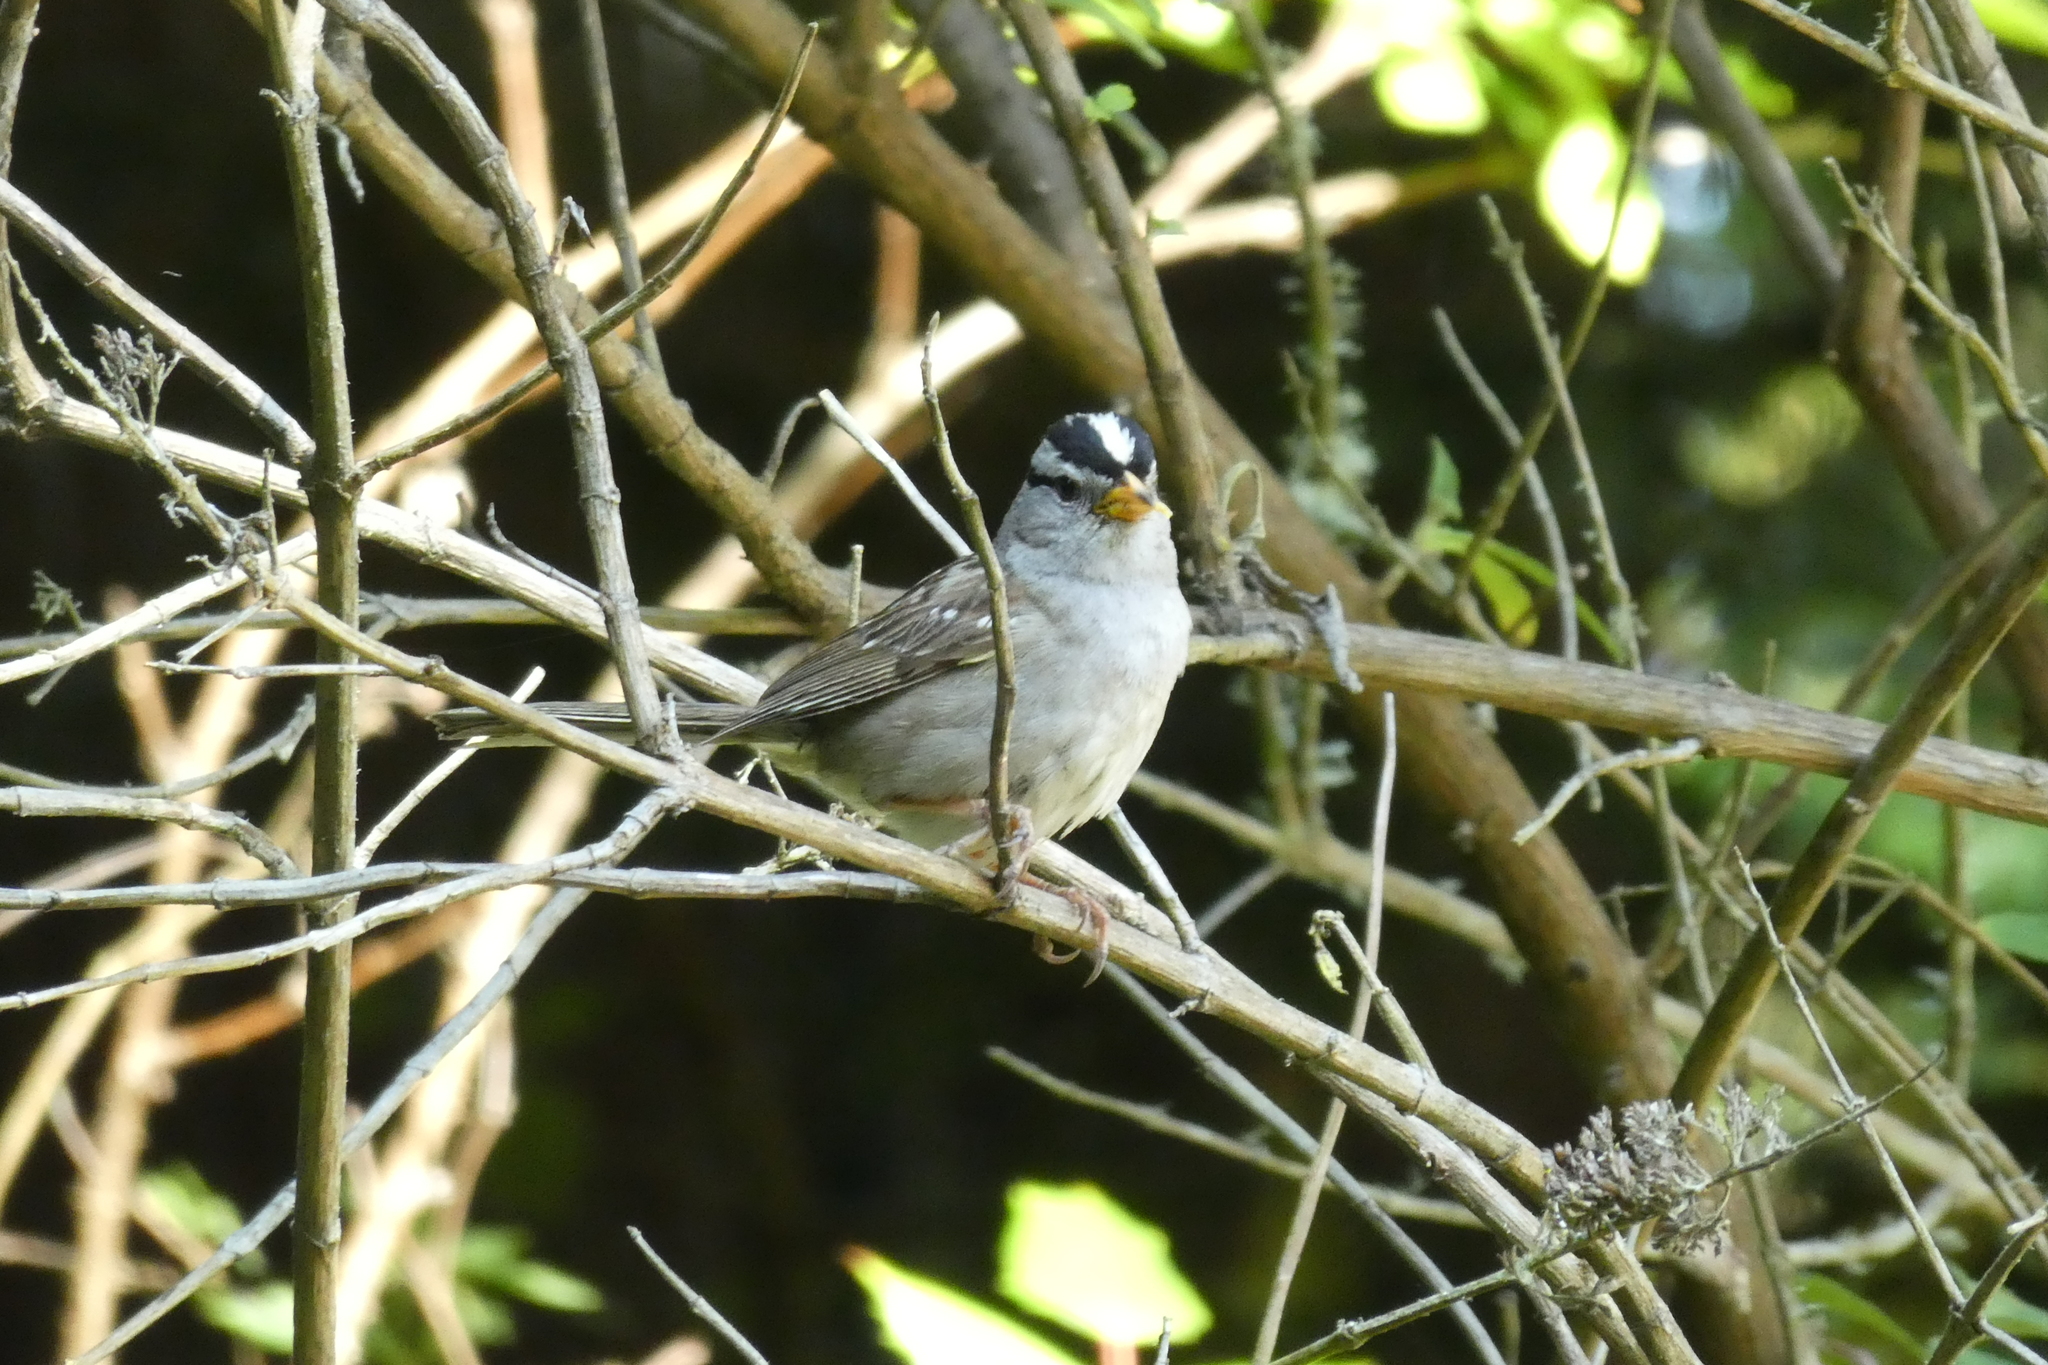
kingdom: Animalia
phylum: Chordata
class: Aves
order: Passeriformes
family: Passerellidae
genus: Zonotrichia
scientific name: Zonotrichia leucophrys
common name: White-crowned sparrow
